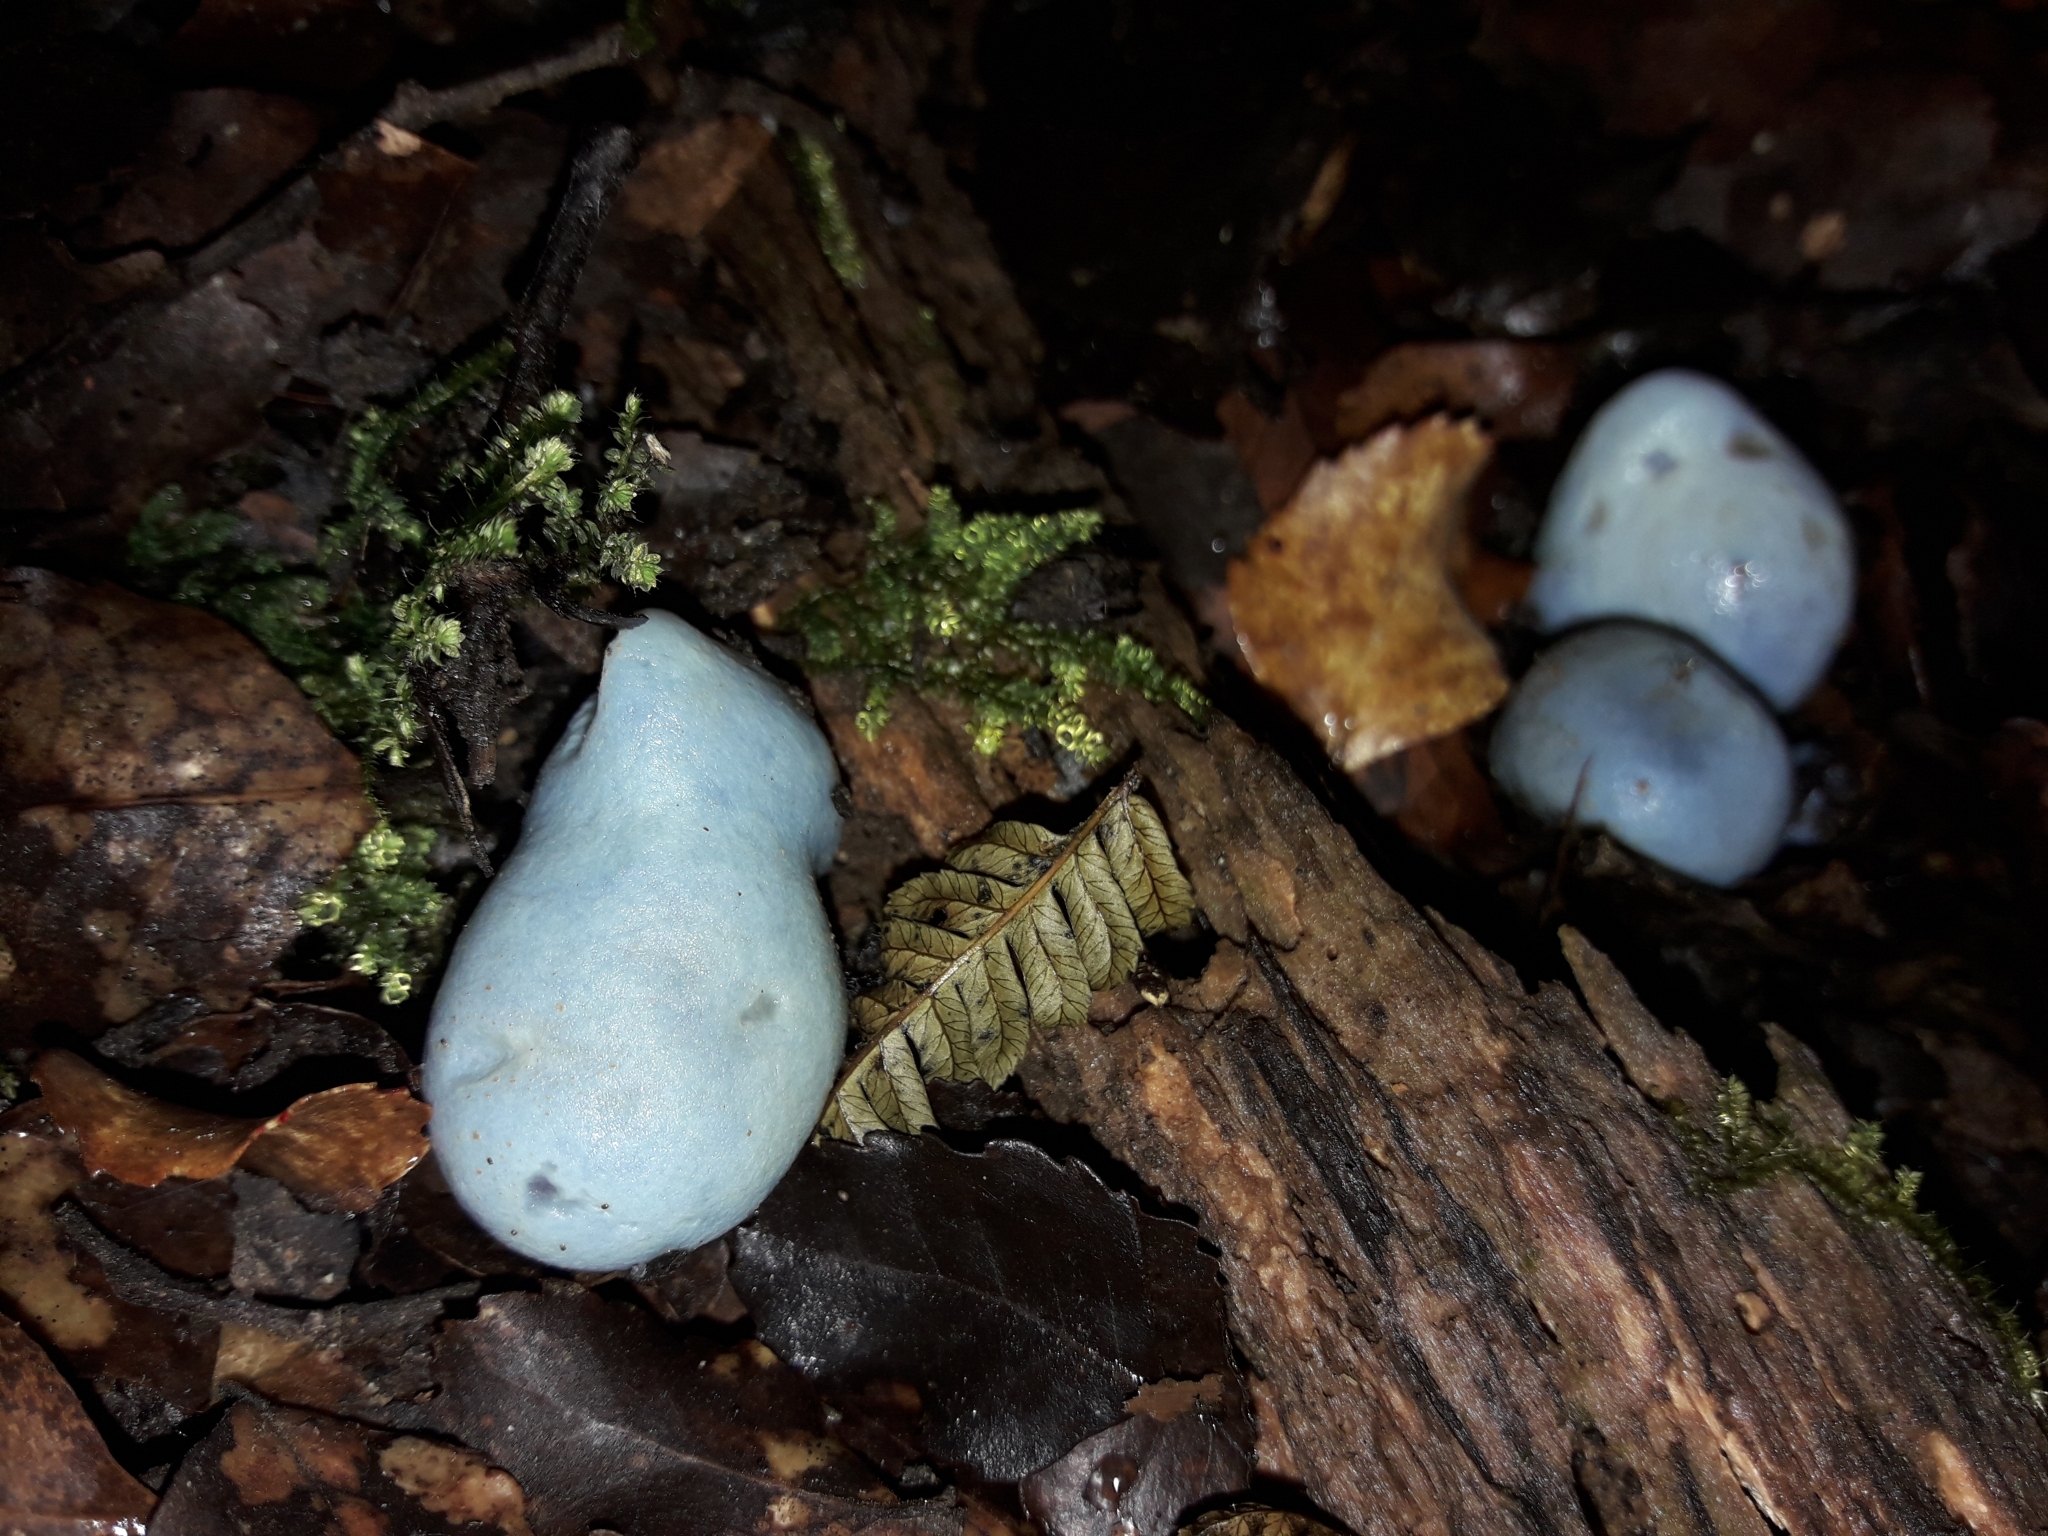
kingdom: Fungi
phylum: Basidiomycota
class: Agaricomycetes
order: Agaricales
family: Agaricaceae
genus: Clavogaster
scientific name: Clavogaster virescens
